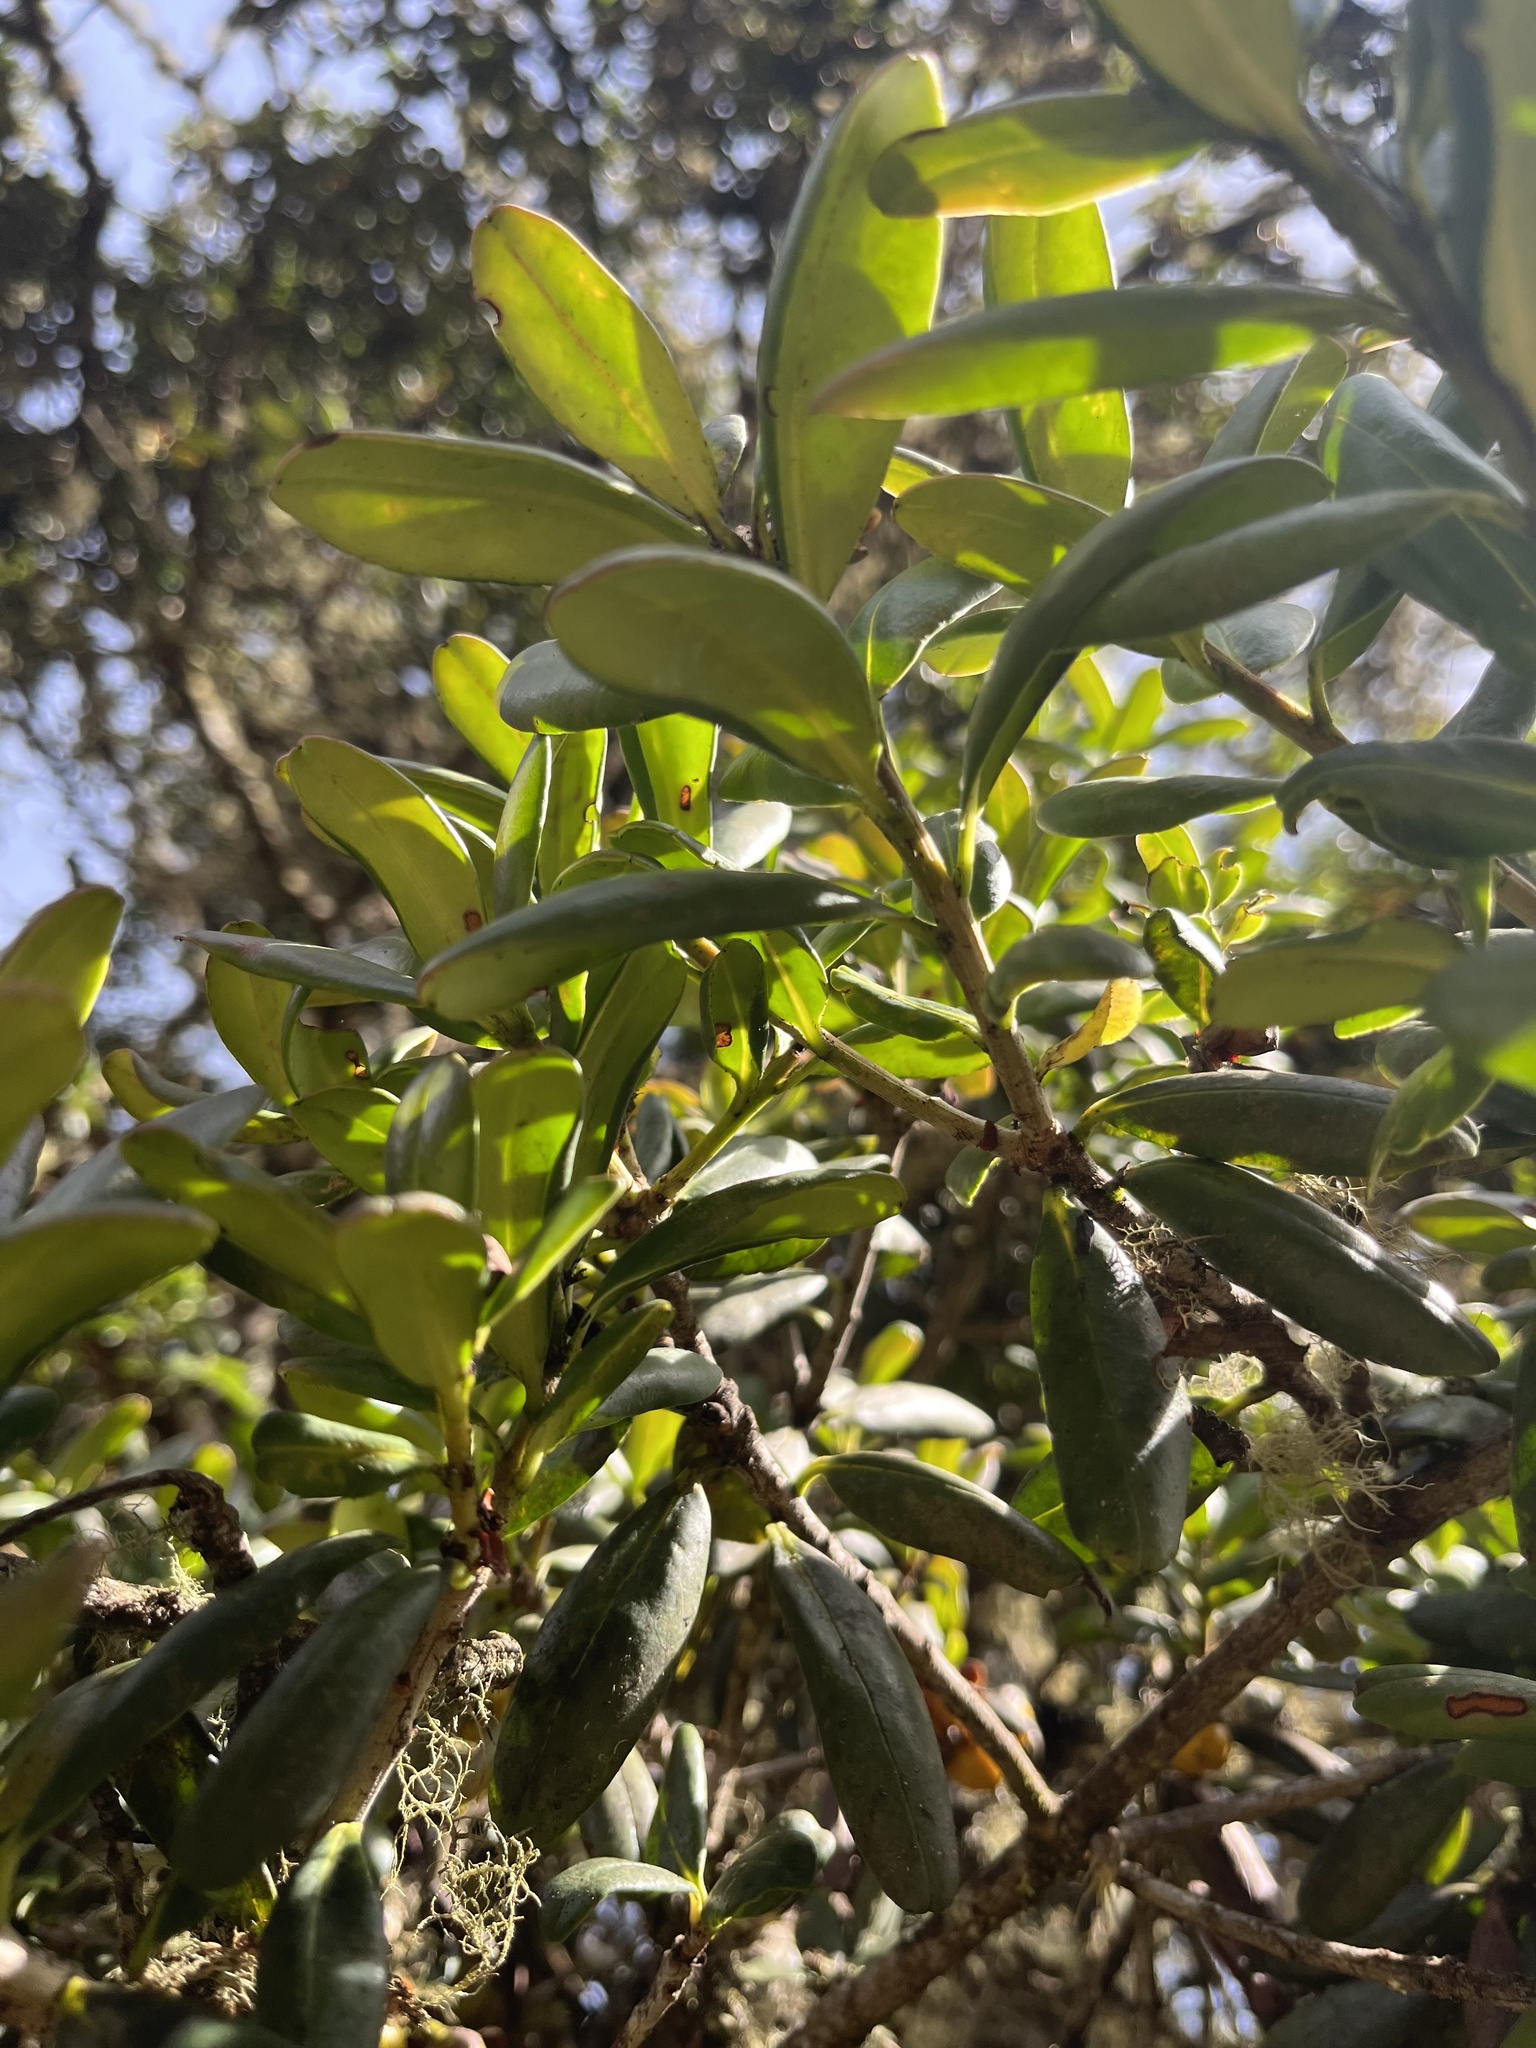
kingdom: Plantae
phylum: Tracheophyta
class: Magnoliopsida
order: Ericales
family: Pentaphylacaceae
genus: Ternstroemia
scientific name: Ternstroemia meridionalis
